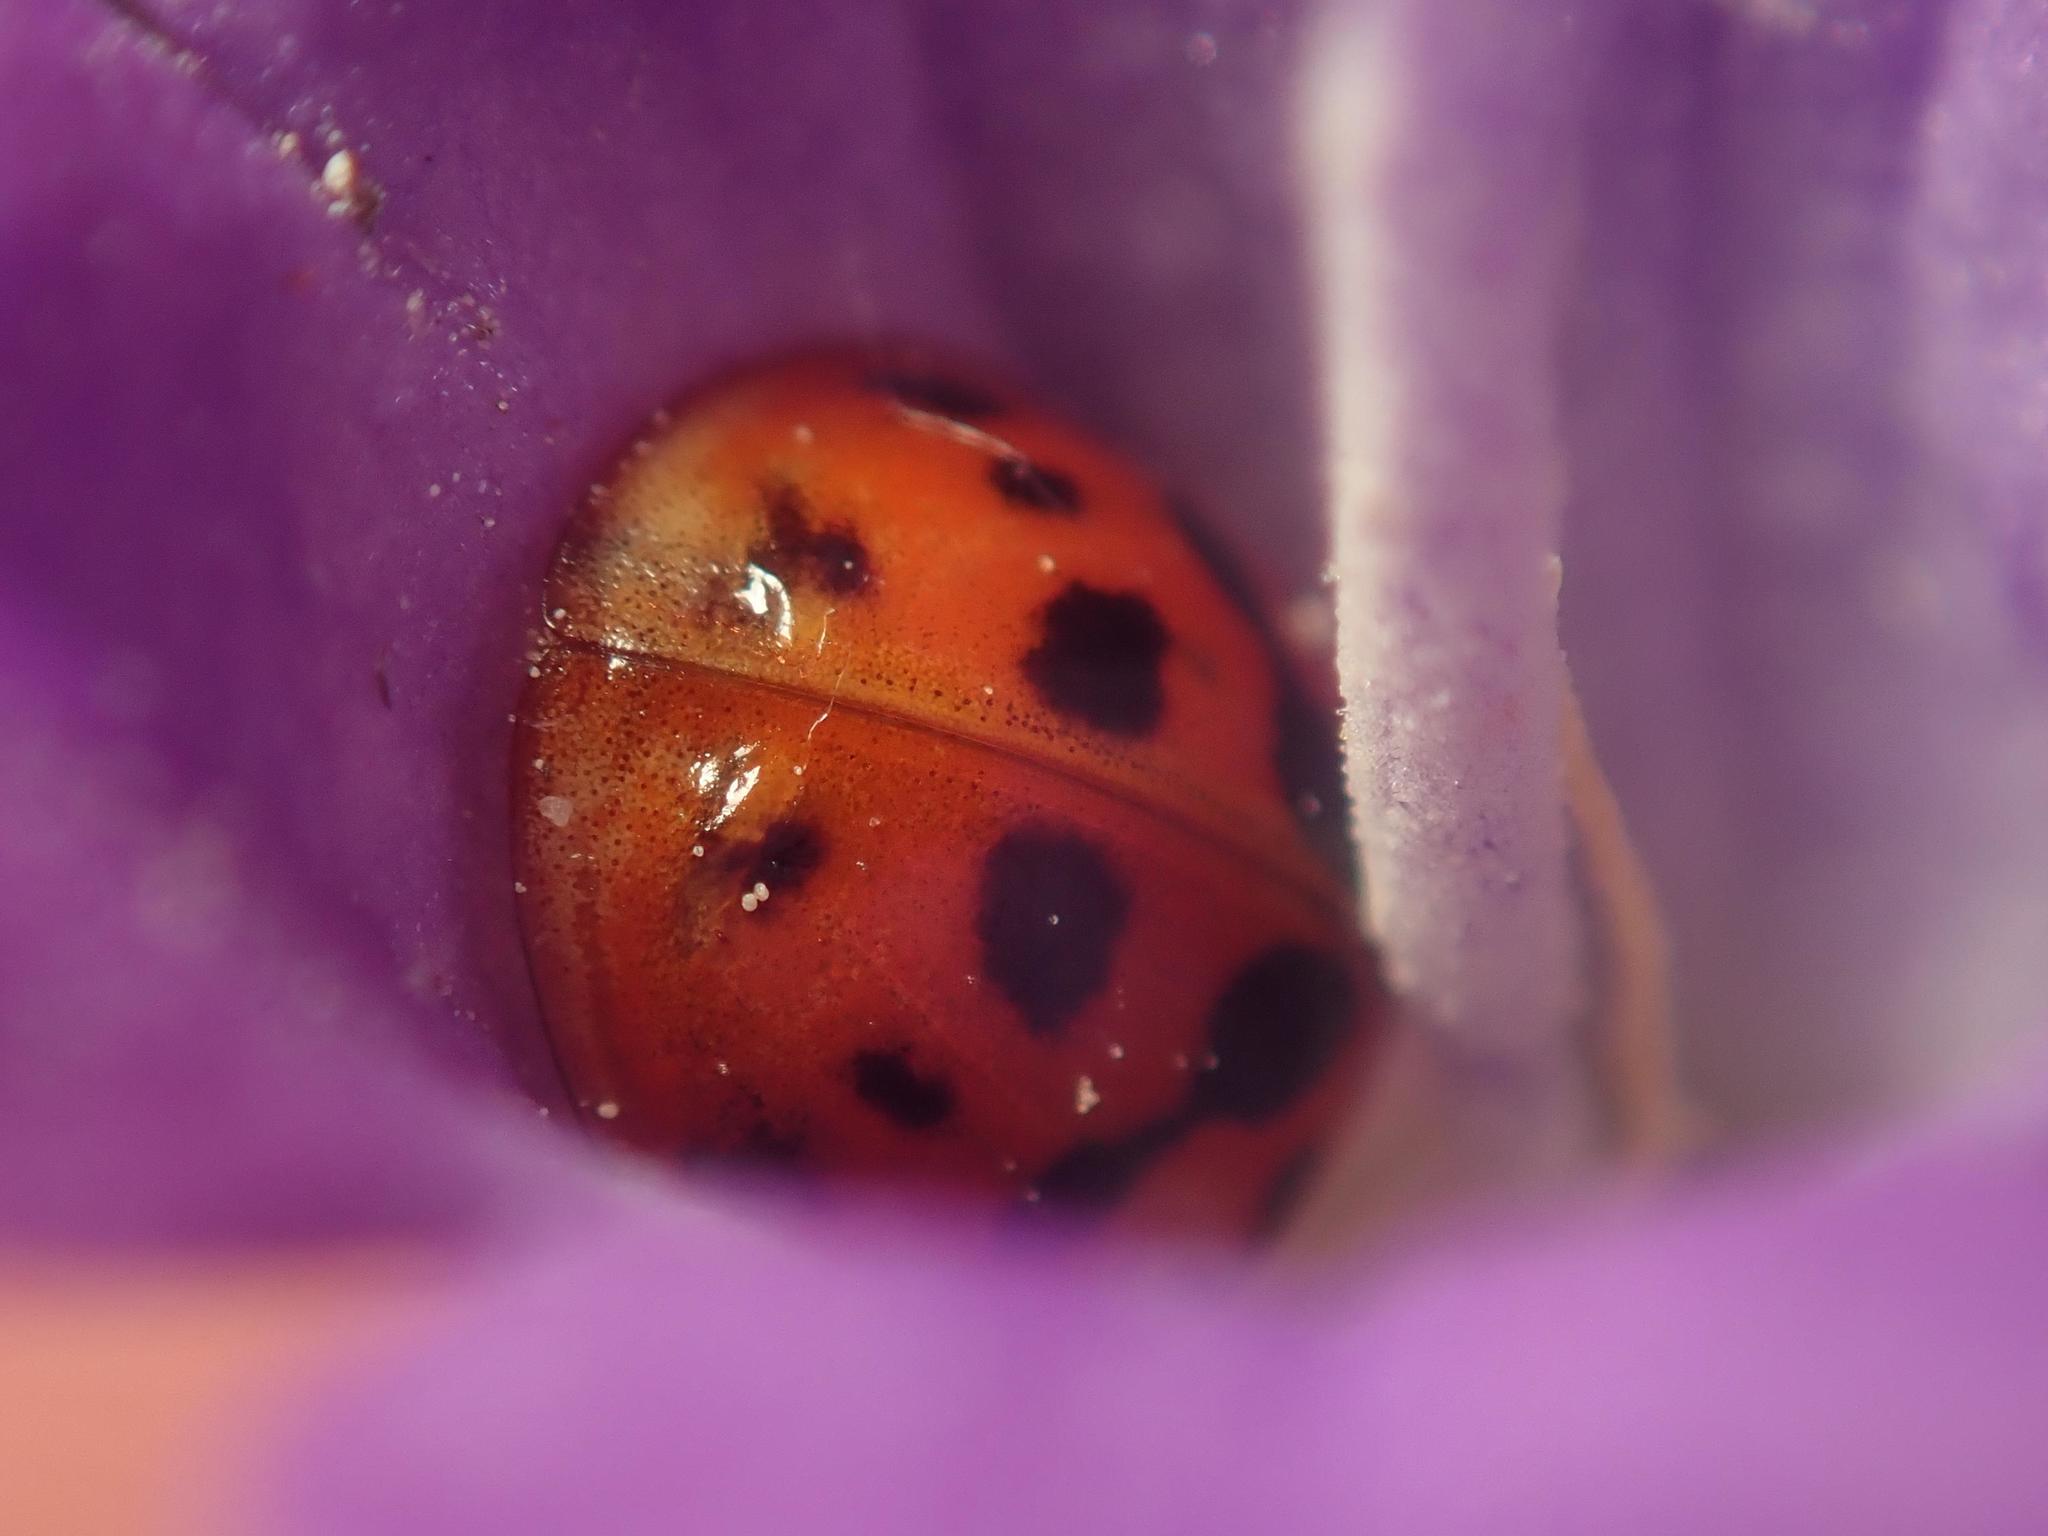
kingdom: Animalia
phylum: Arthropoda
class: Insecta
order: Coleoptera
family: Coccinellidae
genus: Harmonia
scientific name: Harmonia axyridis
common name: Harlequin ladybird
